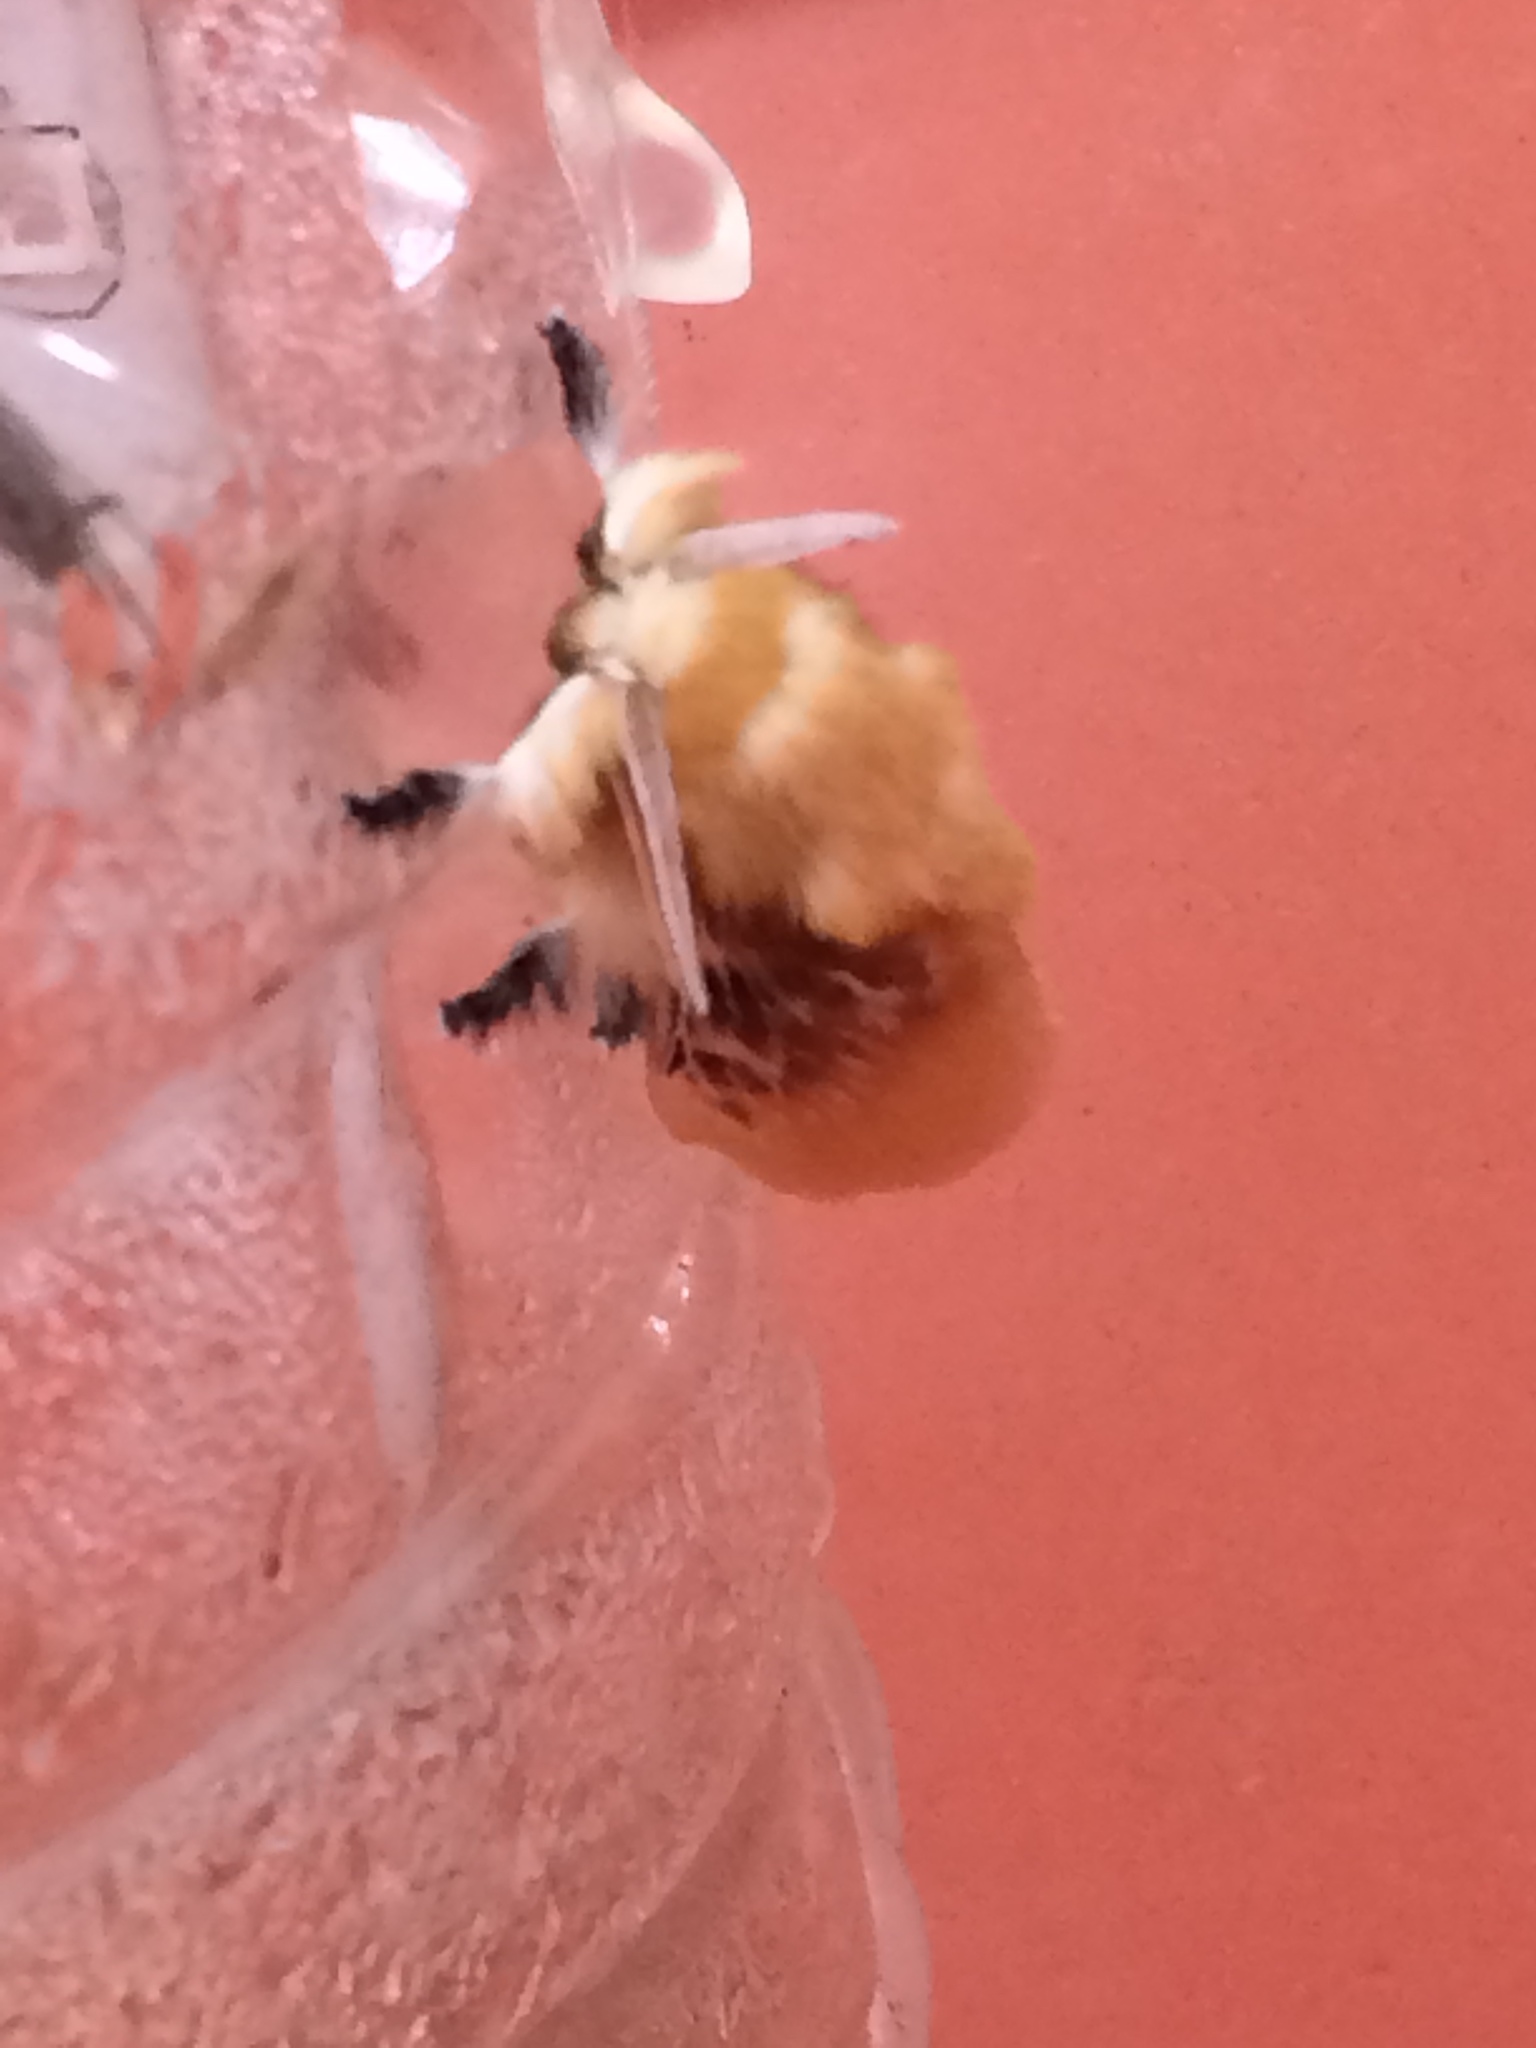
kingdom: Animalia
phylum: Arthropoda
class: Insecta
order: Lepidoptera
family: Megalopygidae
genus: Megalopyge
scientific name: Megalopyge opercularis
